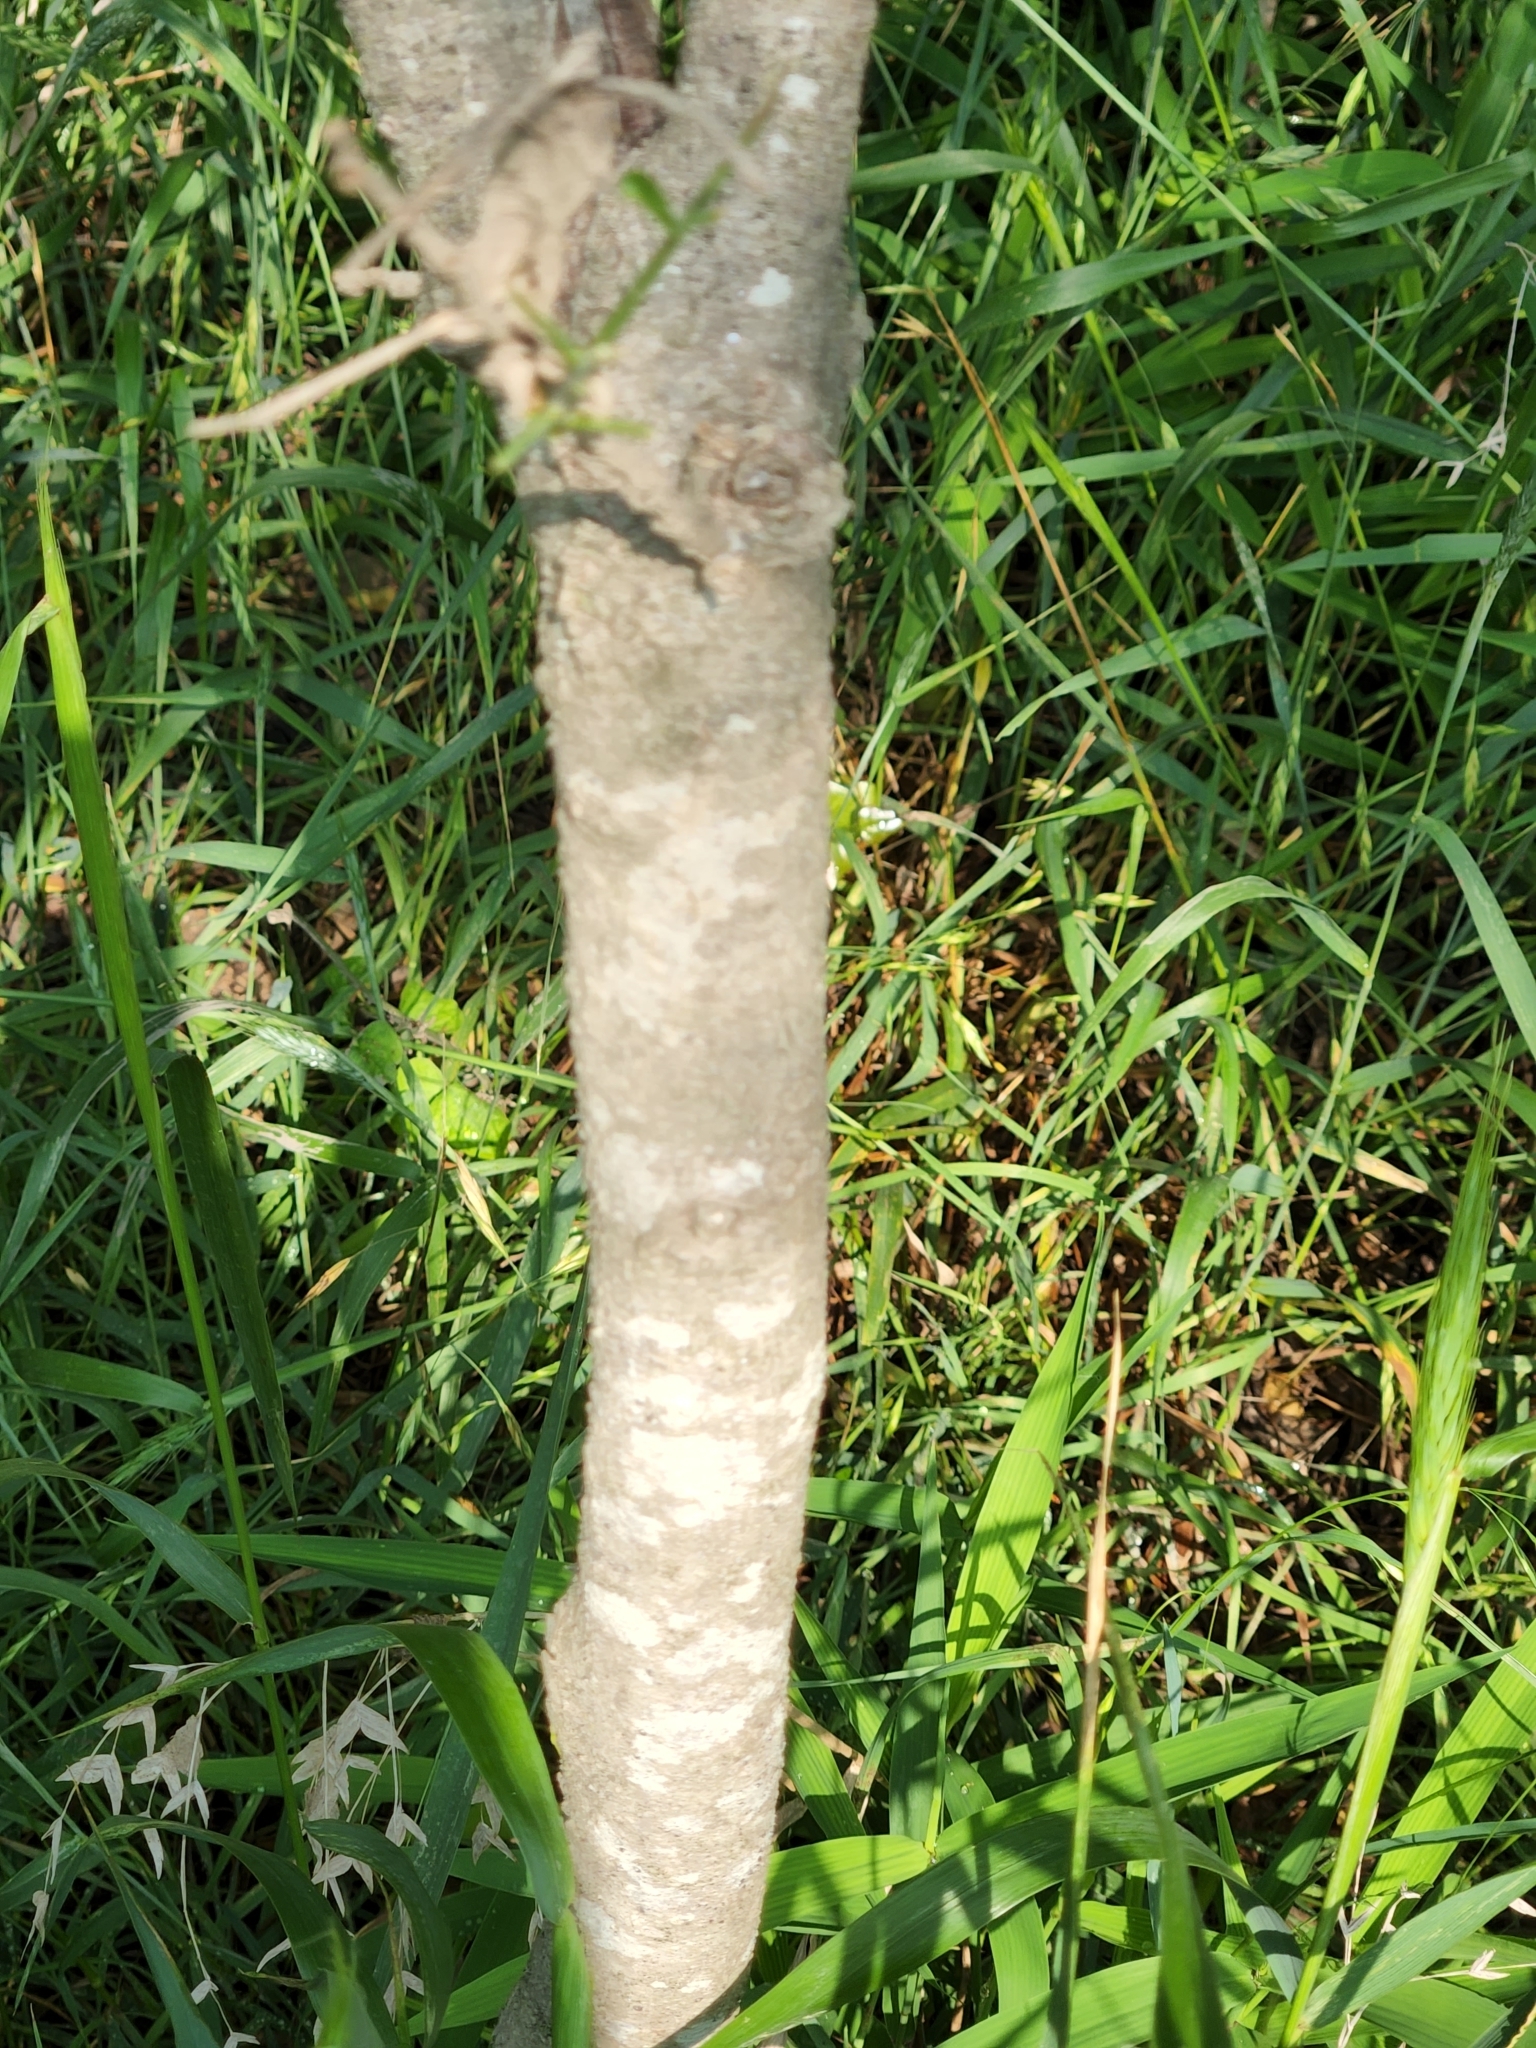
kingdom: Plantae
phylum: Tracheophyta
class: Magnoliopsida
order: Sapindales
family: Sapindaceae
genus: Sapindus
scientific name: Sapindus drummondii
